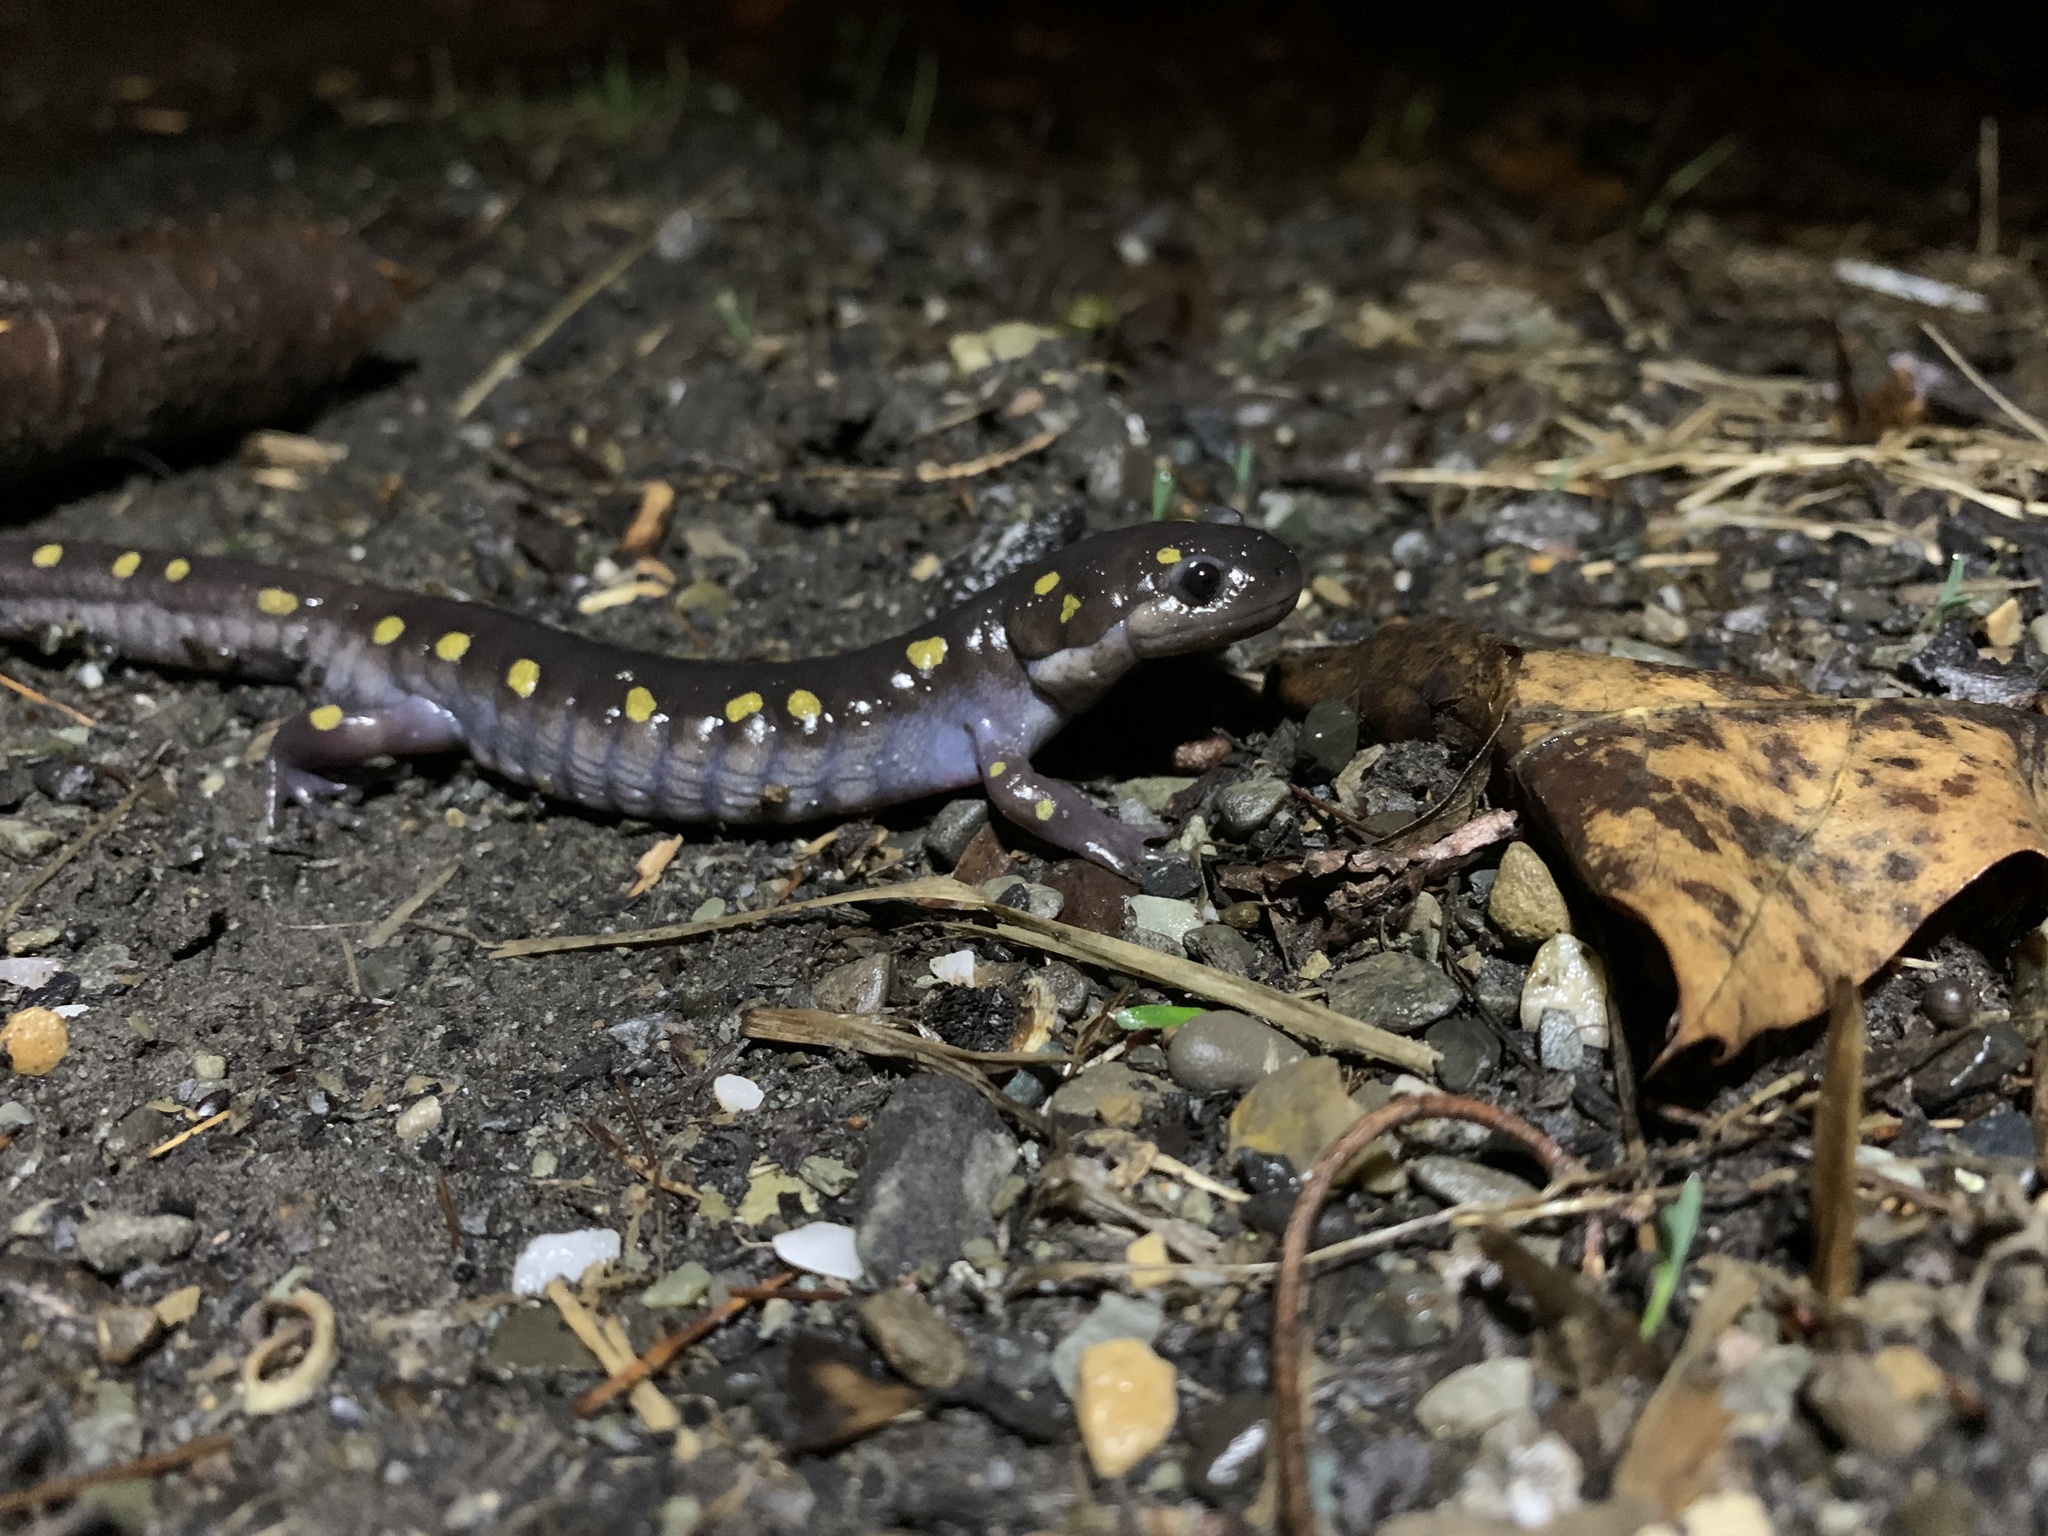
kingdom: Animalia
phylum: Chordata
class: Amphibia
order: Caudata
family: Ambystomatidae
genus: Ambystoma
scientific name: Ambystoma maculatum
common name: Spotted salamander
